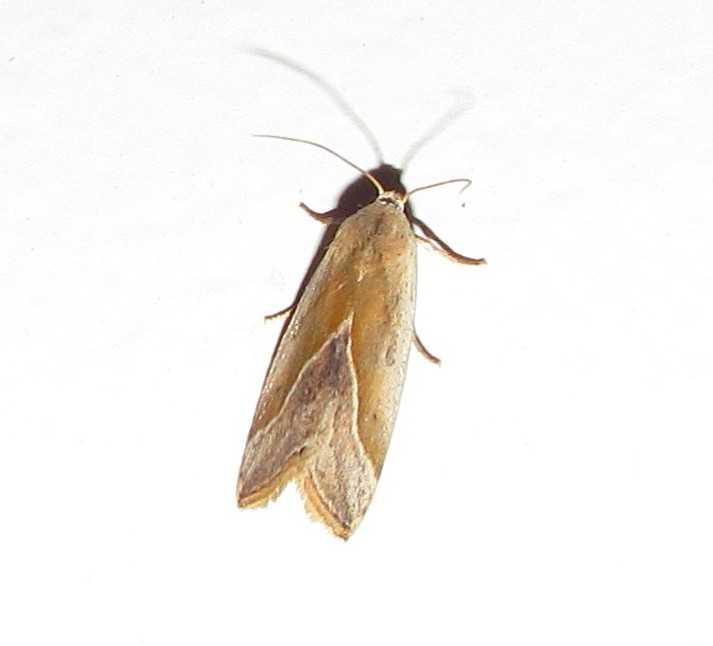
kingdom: Animalia
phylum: Arthropoda
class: Insecta
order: Lepidoptera
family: Noctuidae
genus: Micrathetis
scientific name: Micrathetis dasarada
